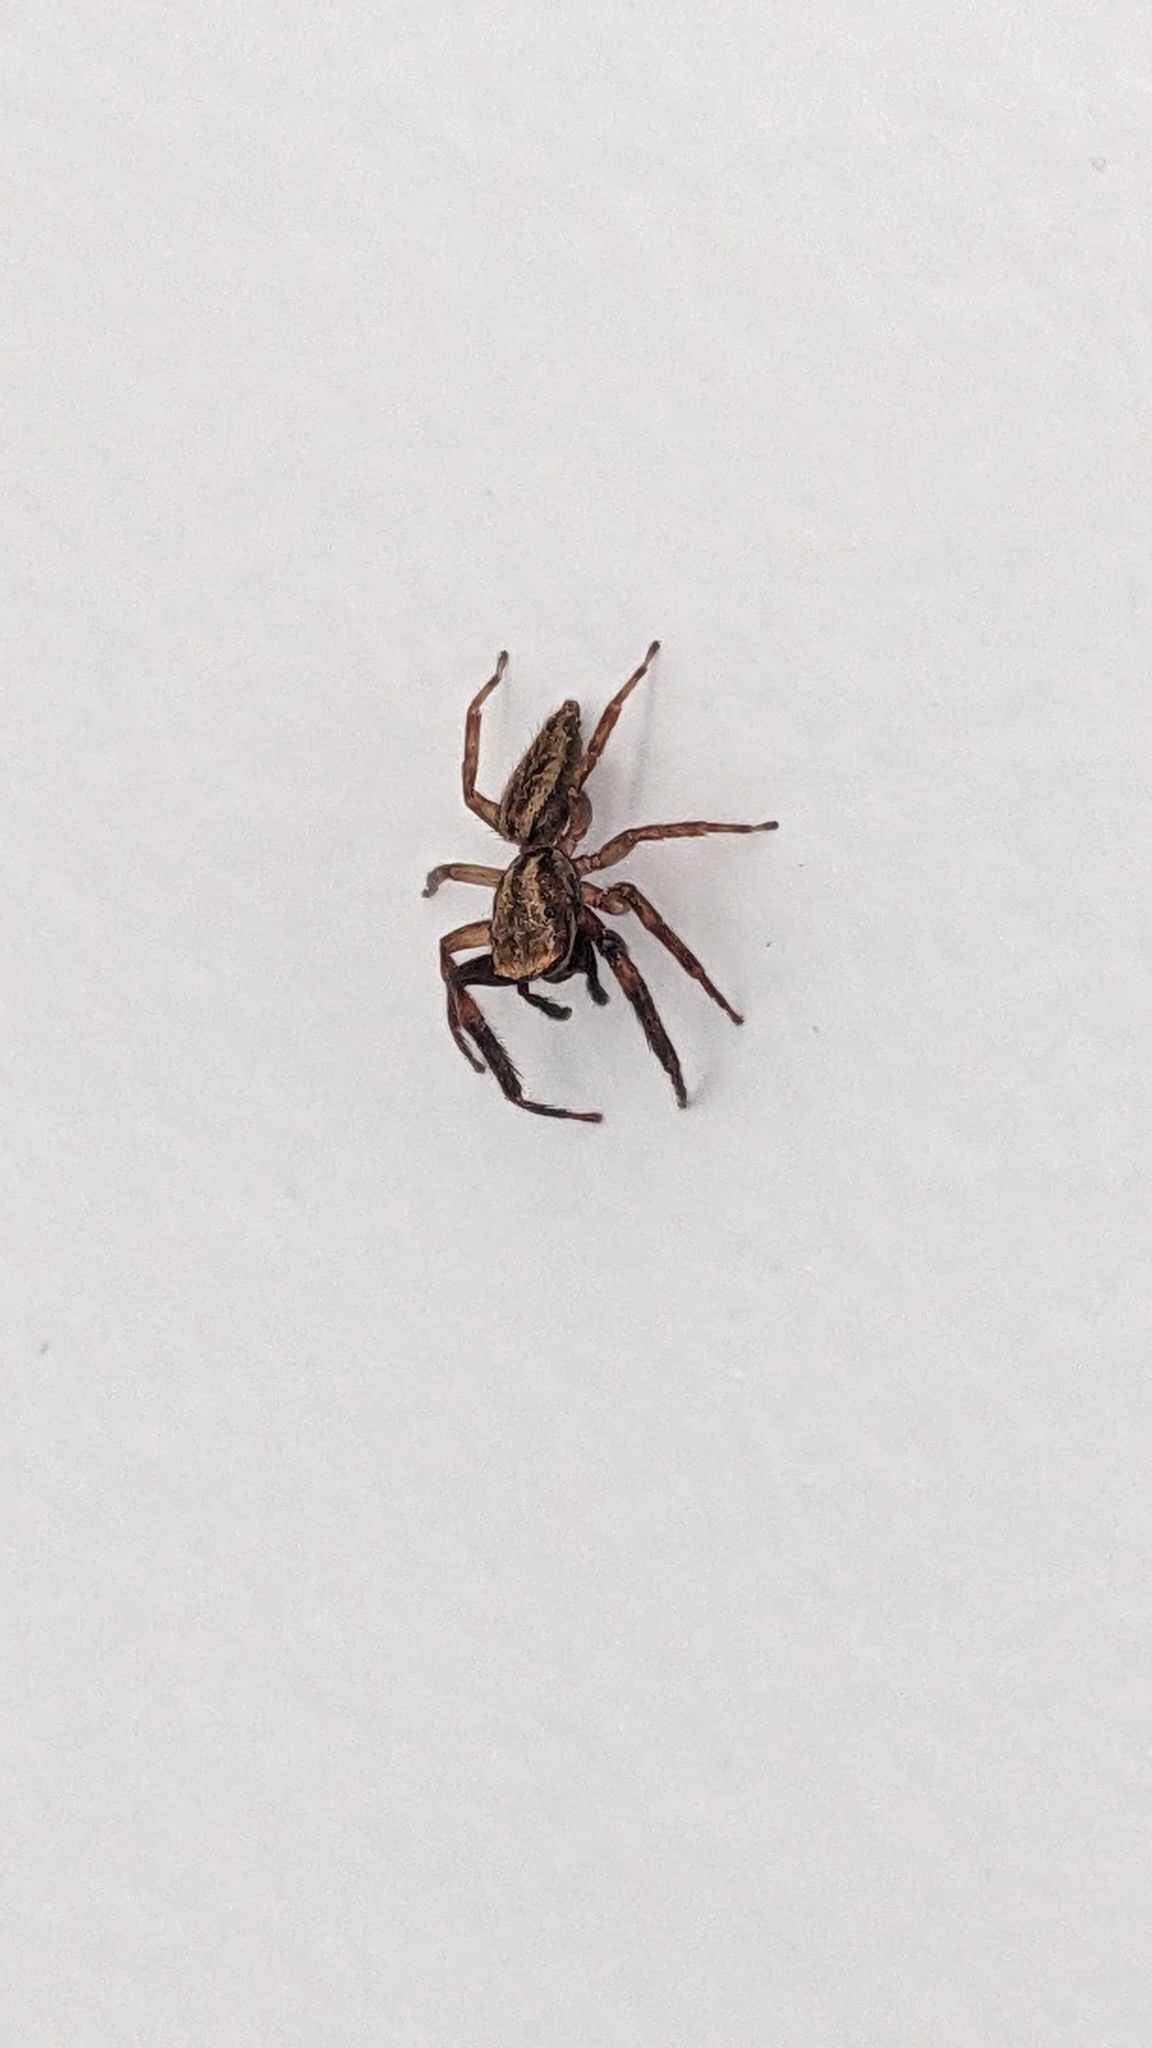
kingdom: Animalia
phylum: Arthropoda
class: Arachnida
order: Araneae
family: Salticidae
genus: Trite
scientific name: Trite auricoma
